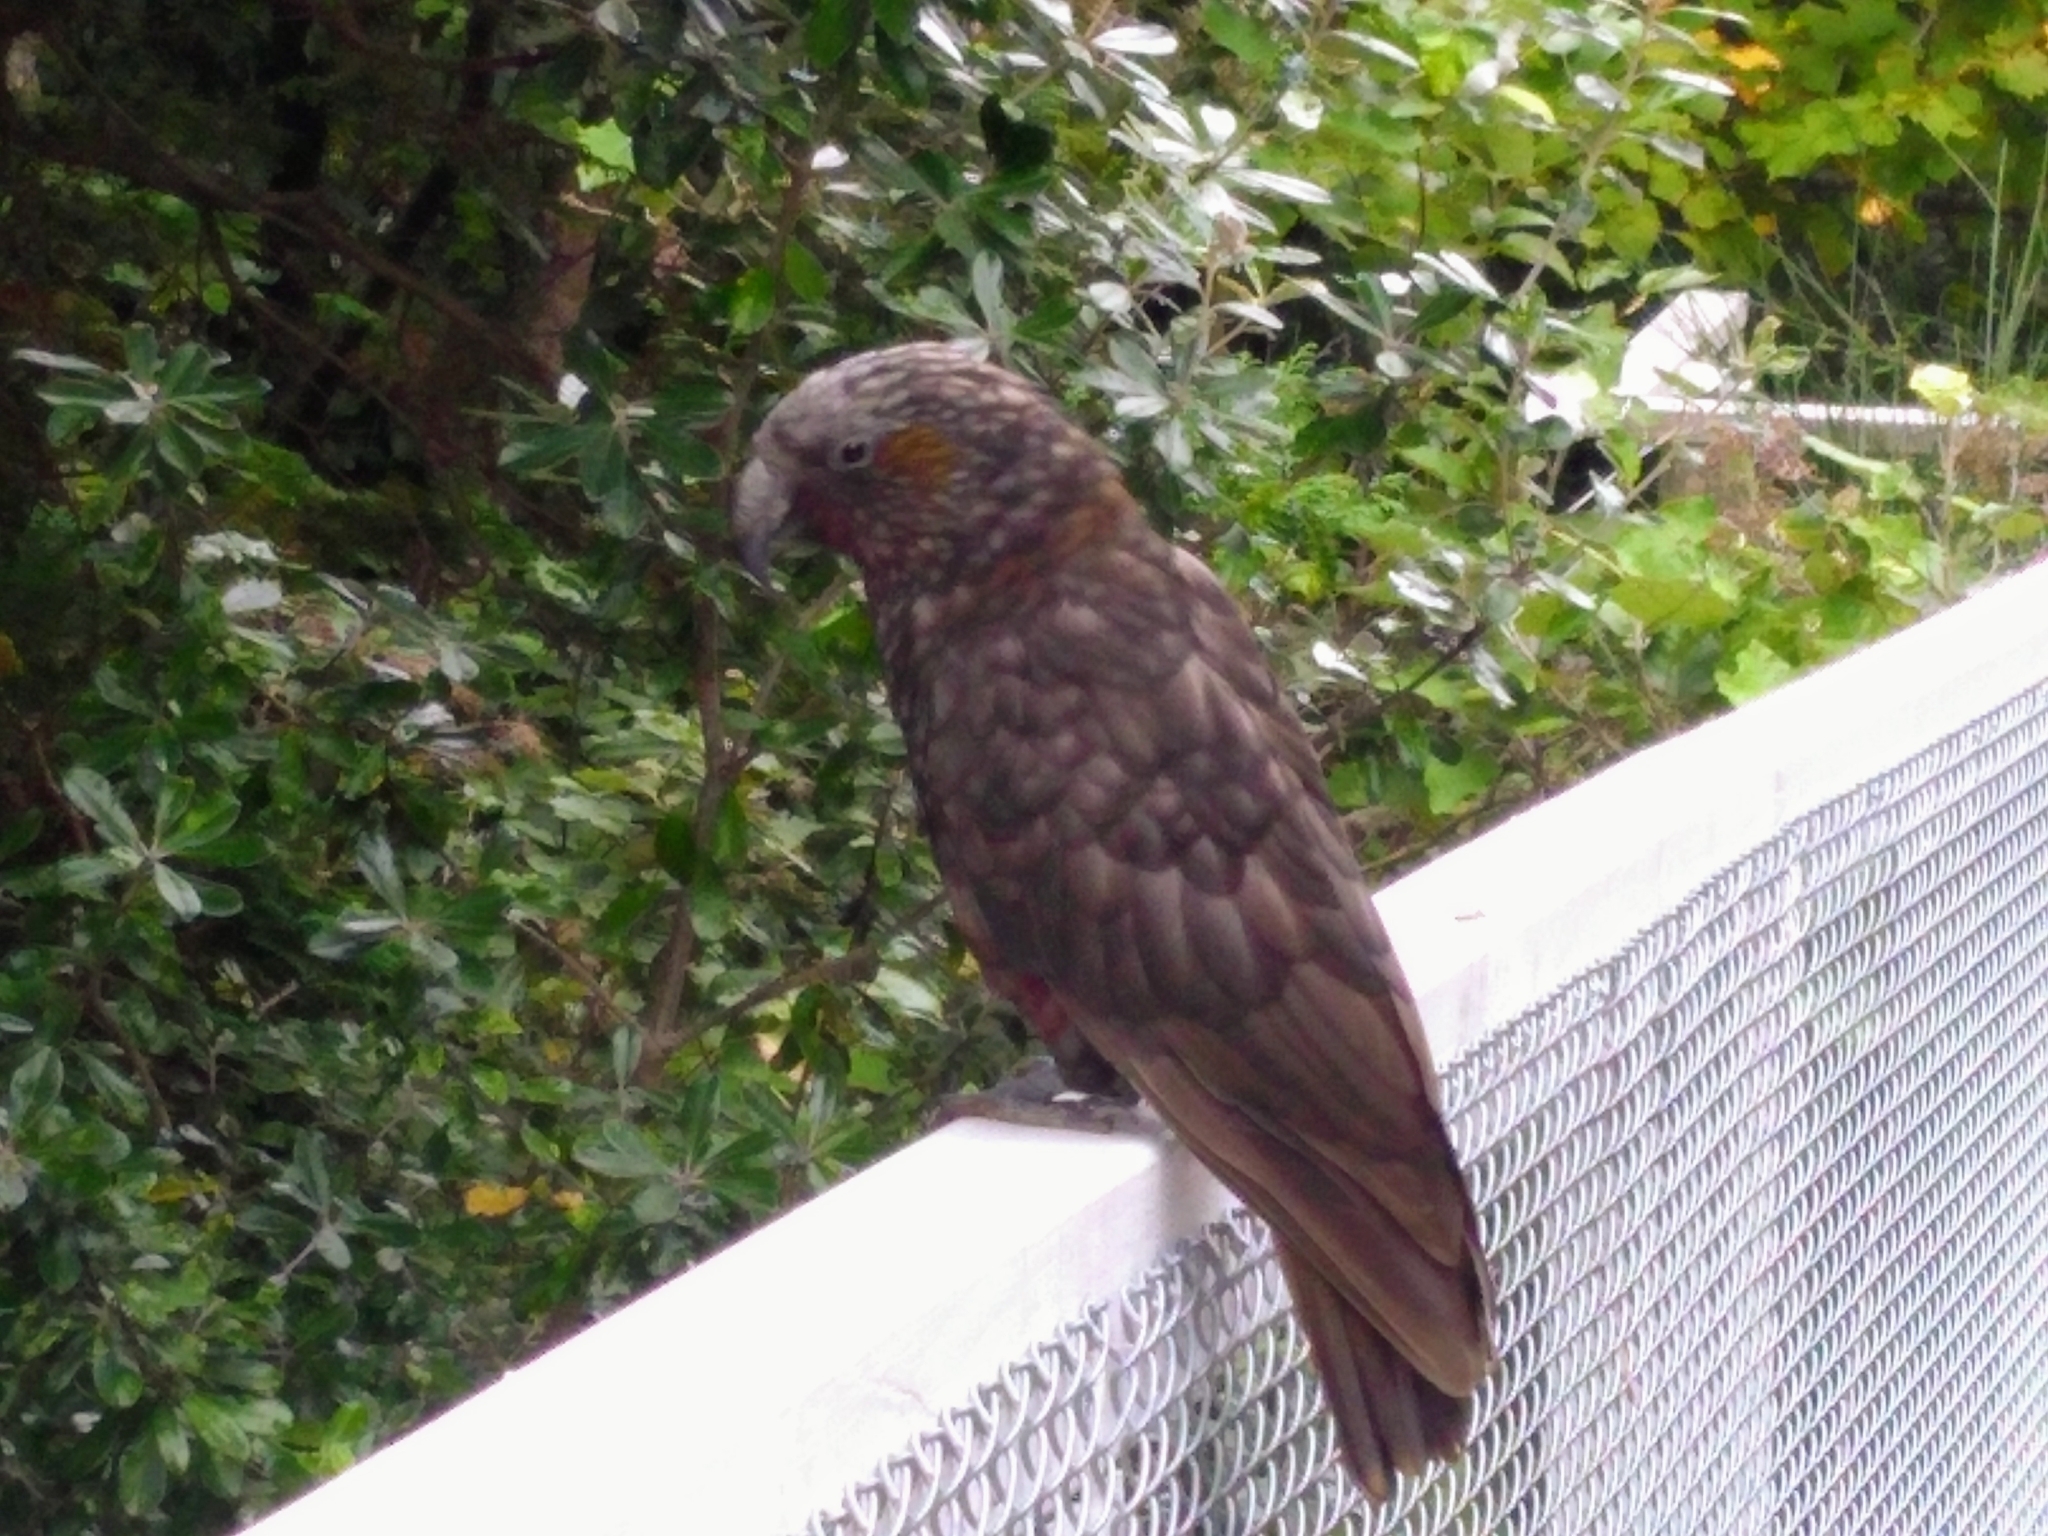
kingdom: Animalia
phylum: Chordata
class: Aves
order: Psittaciformes
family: Psittacidae
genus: Nestor
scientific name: Nestor meridionalis
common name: New zealand kaka
